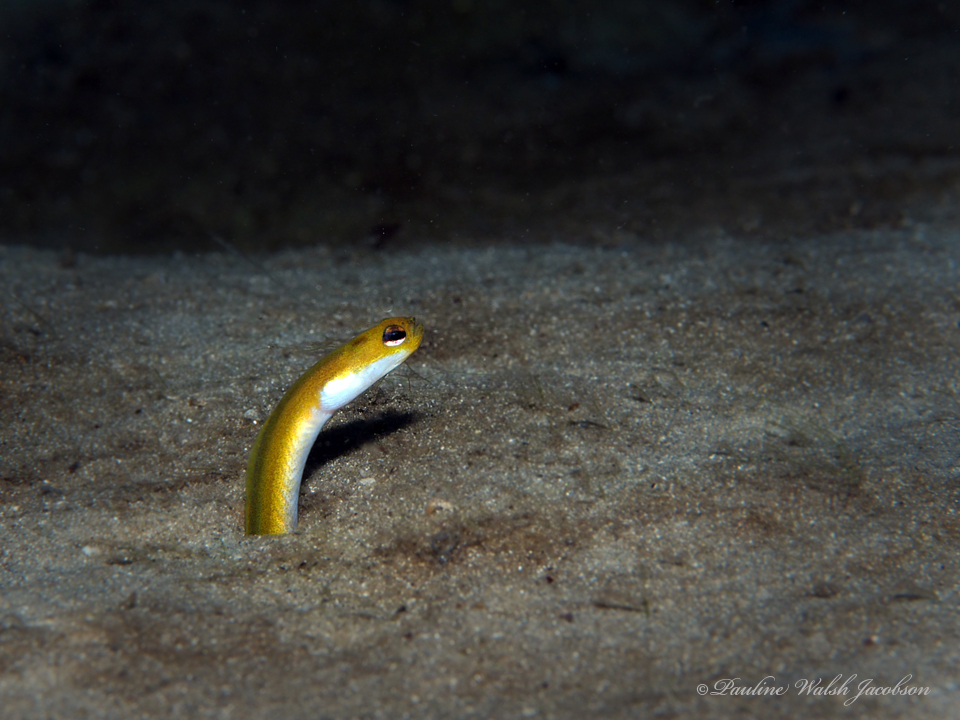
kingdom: Animalia
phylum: Chordata
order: Anguilliformes
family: Congridae
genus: Heteroconger
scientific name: Heteroconger luteolus
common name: Yellow garden eel
